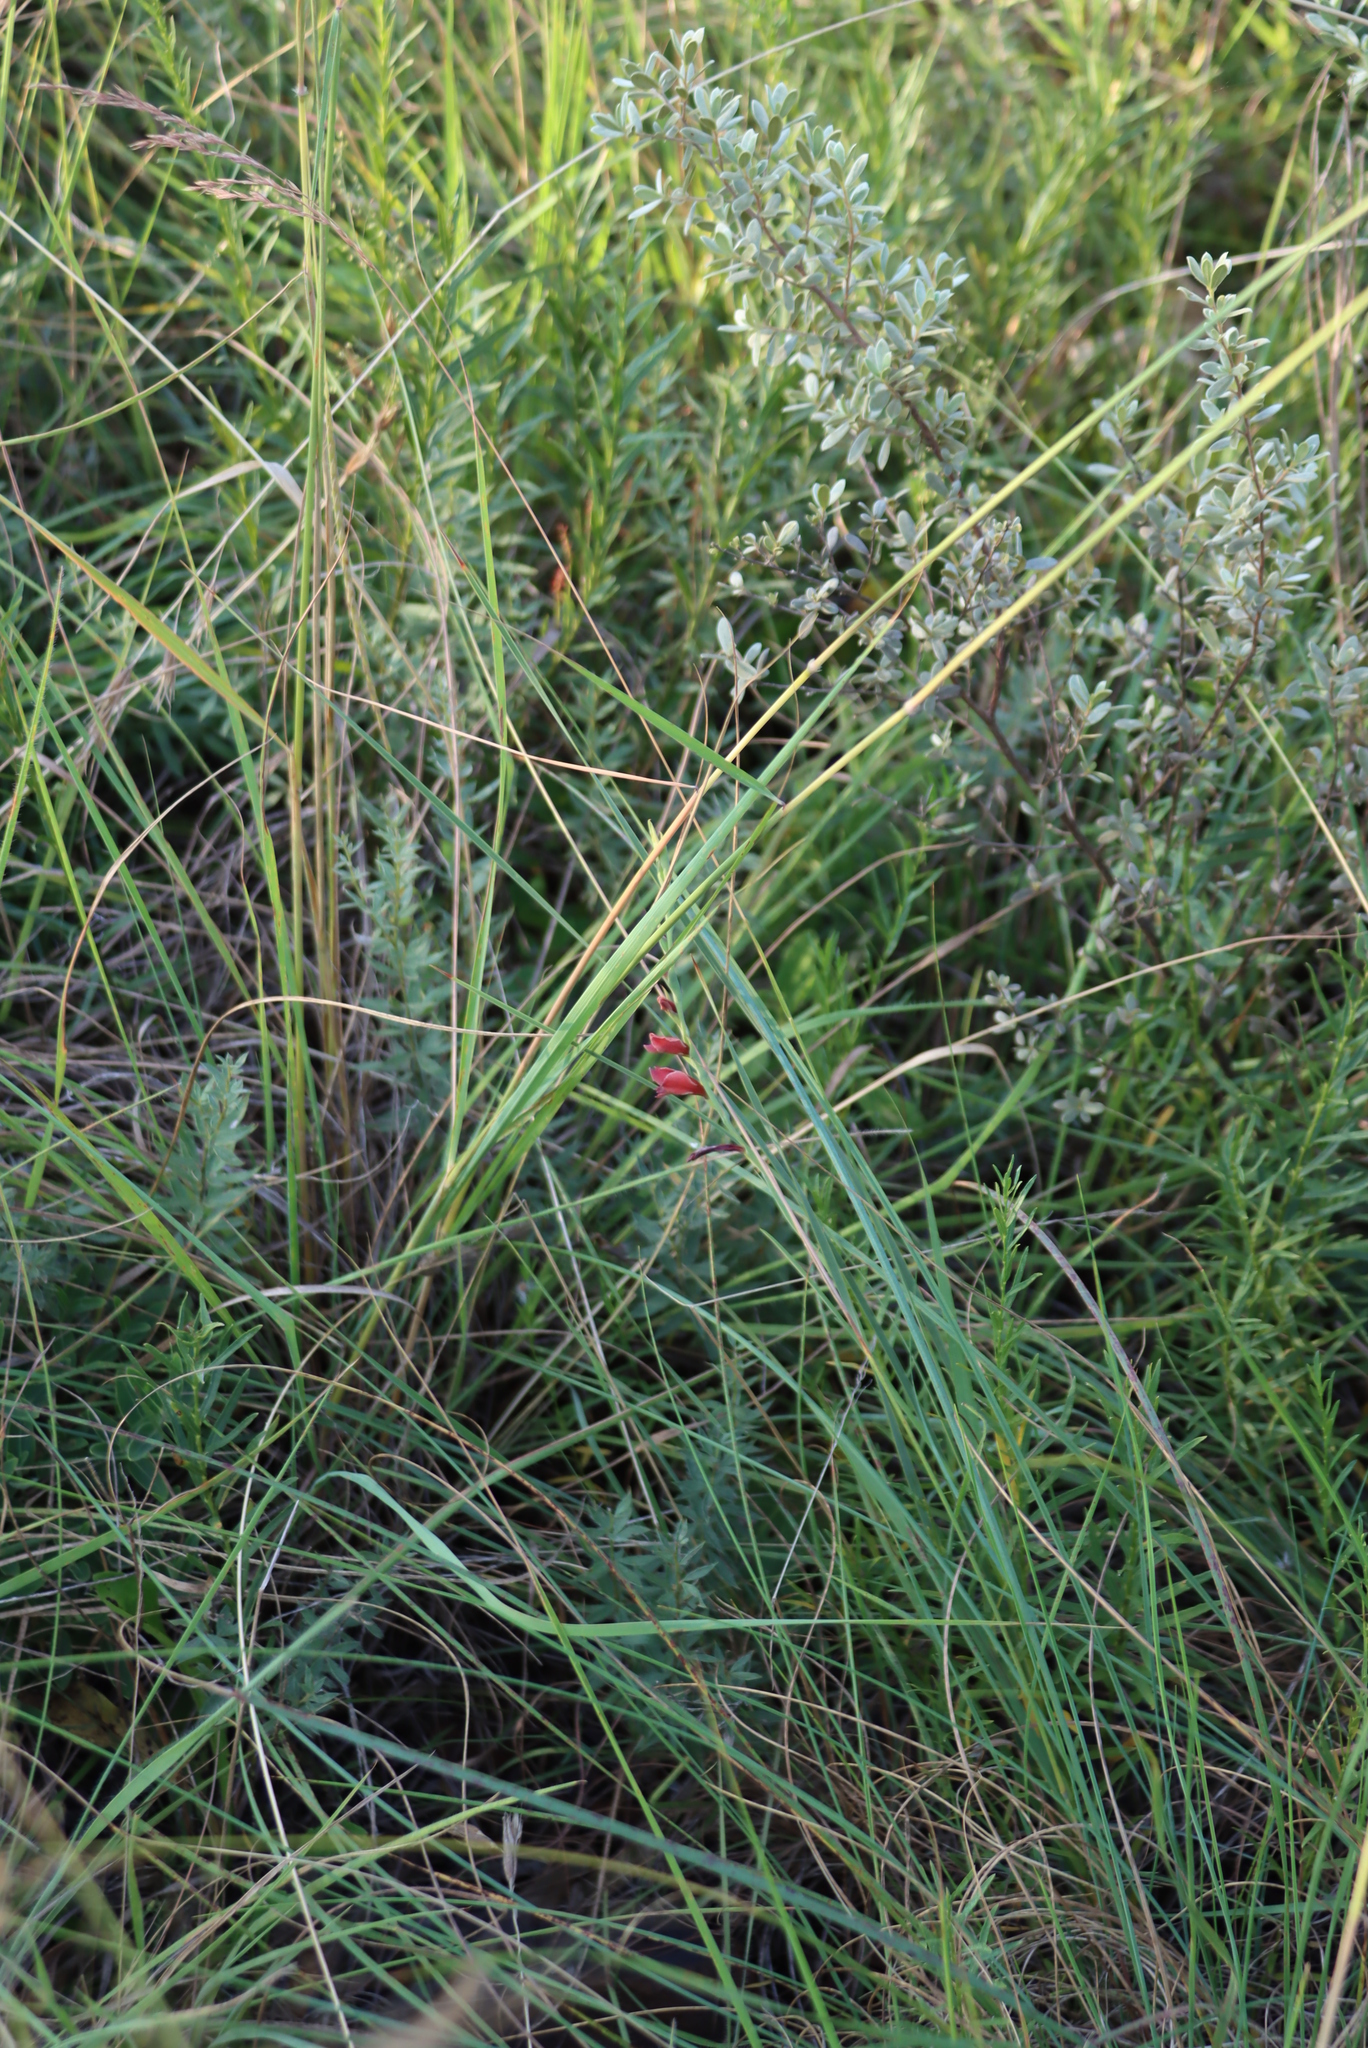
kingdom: Plantae
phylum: Tracheophyta
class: Liliopsida
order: Asparagales
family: Iridaceae
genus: Gladiolus
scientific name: Gladiolus densiflorus
